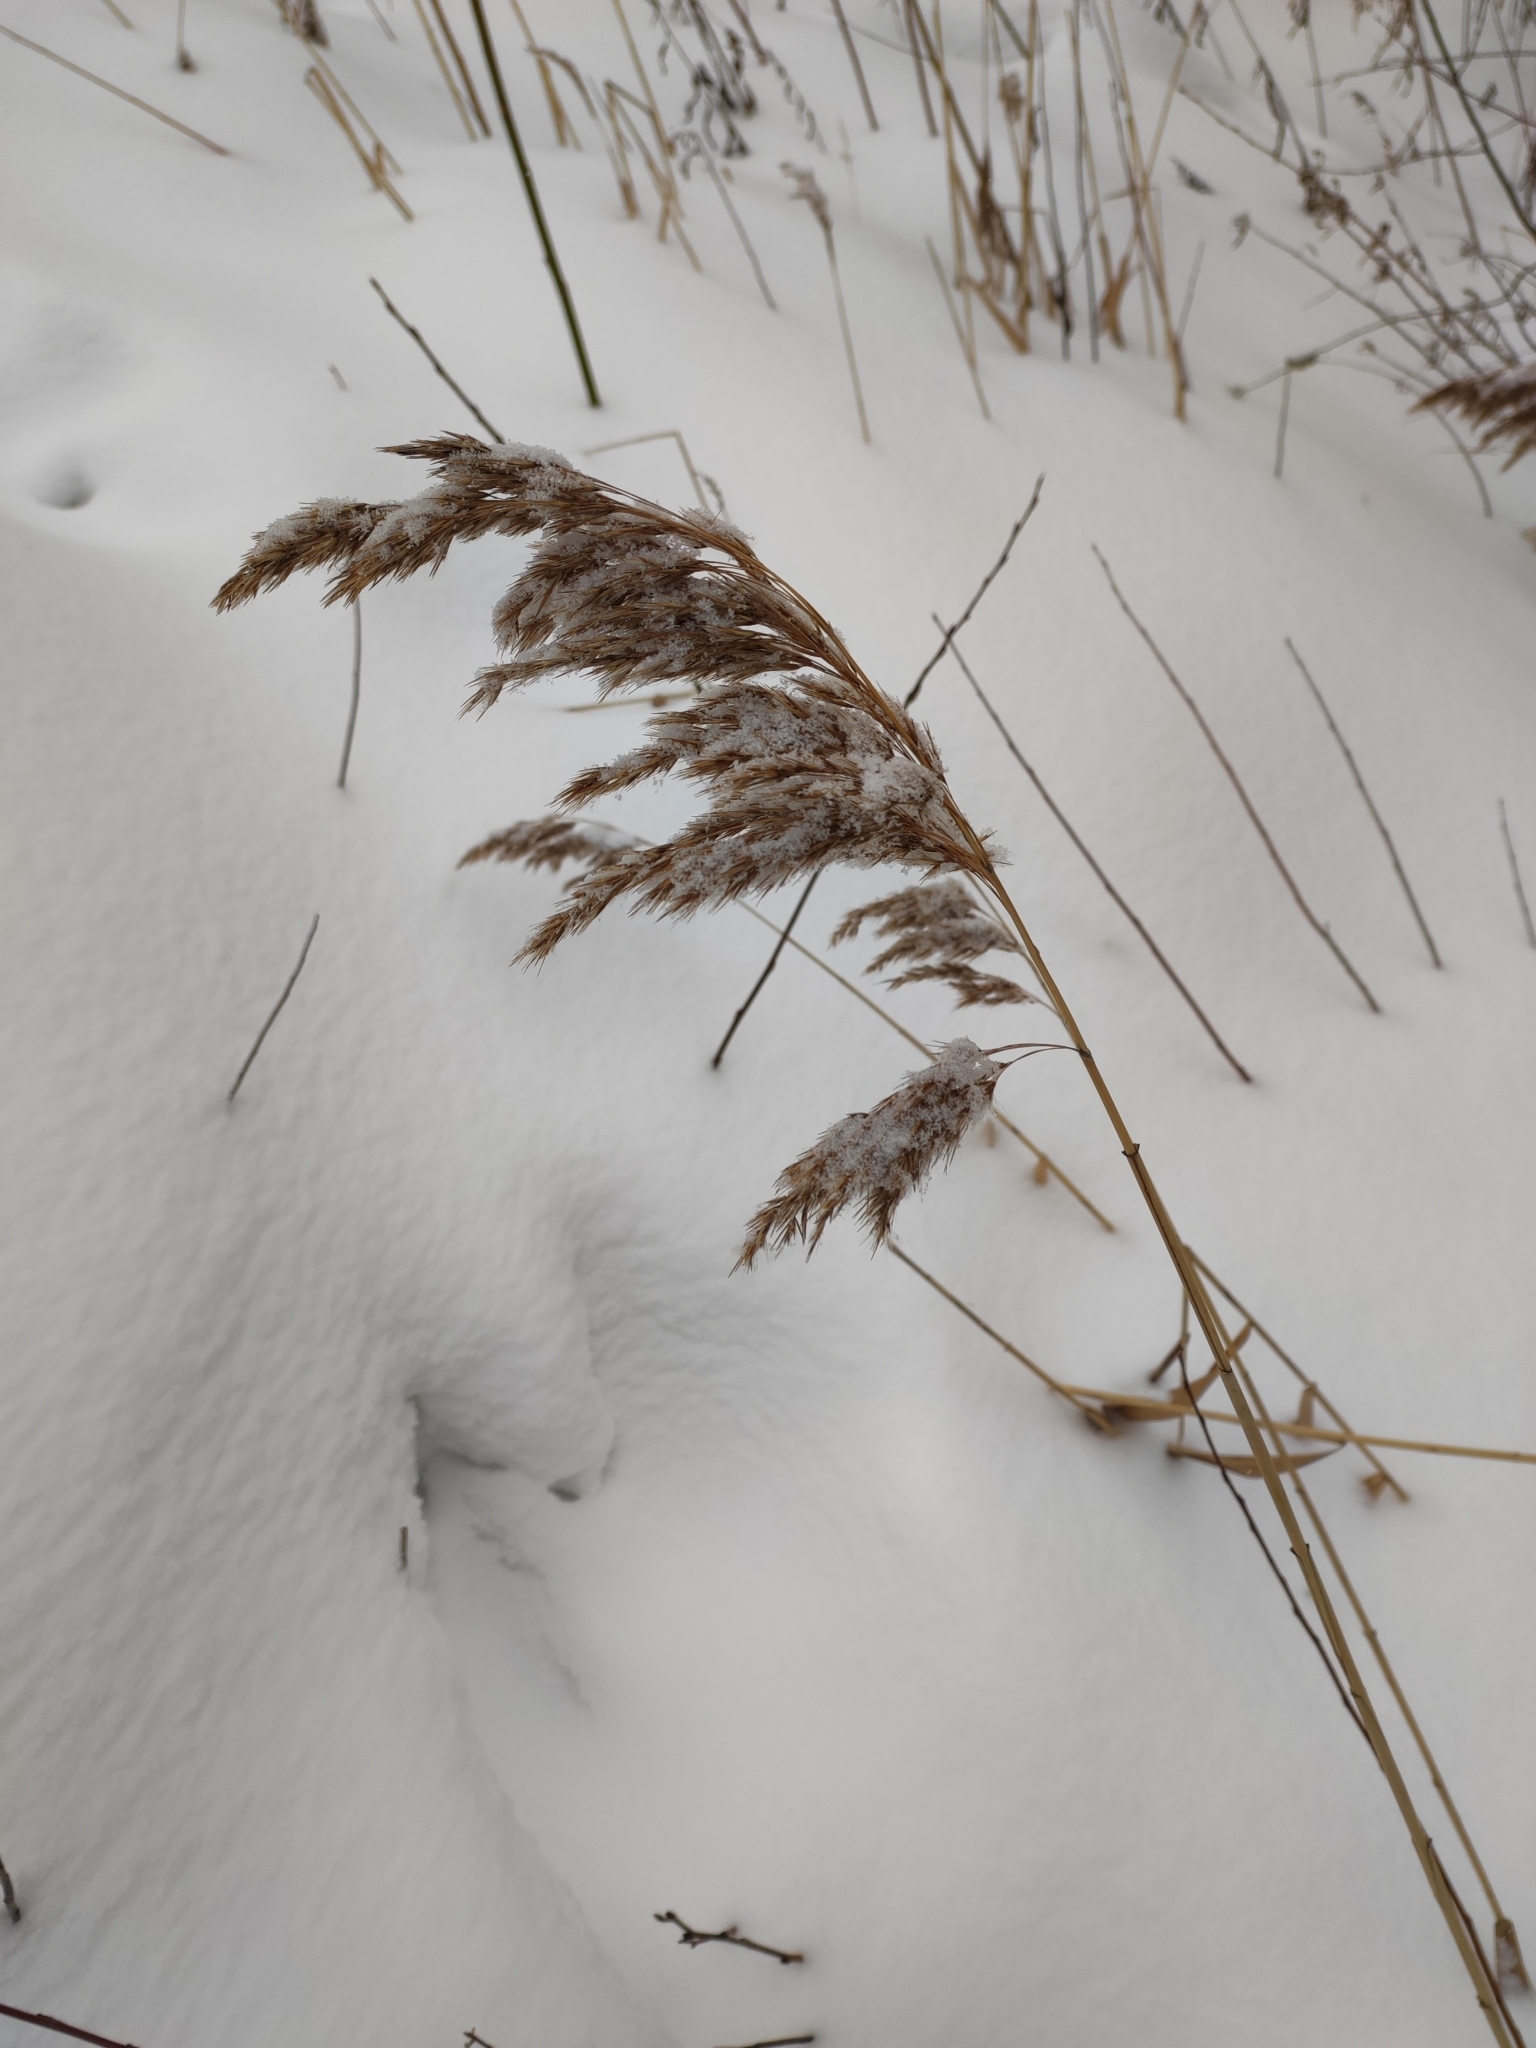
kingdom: Plantae
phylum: Tracheophyta
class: Liliopsida
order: Poales
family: Poaceae
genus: Phragmites
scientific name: Phragmites australis
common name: Common reed
